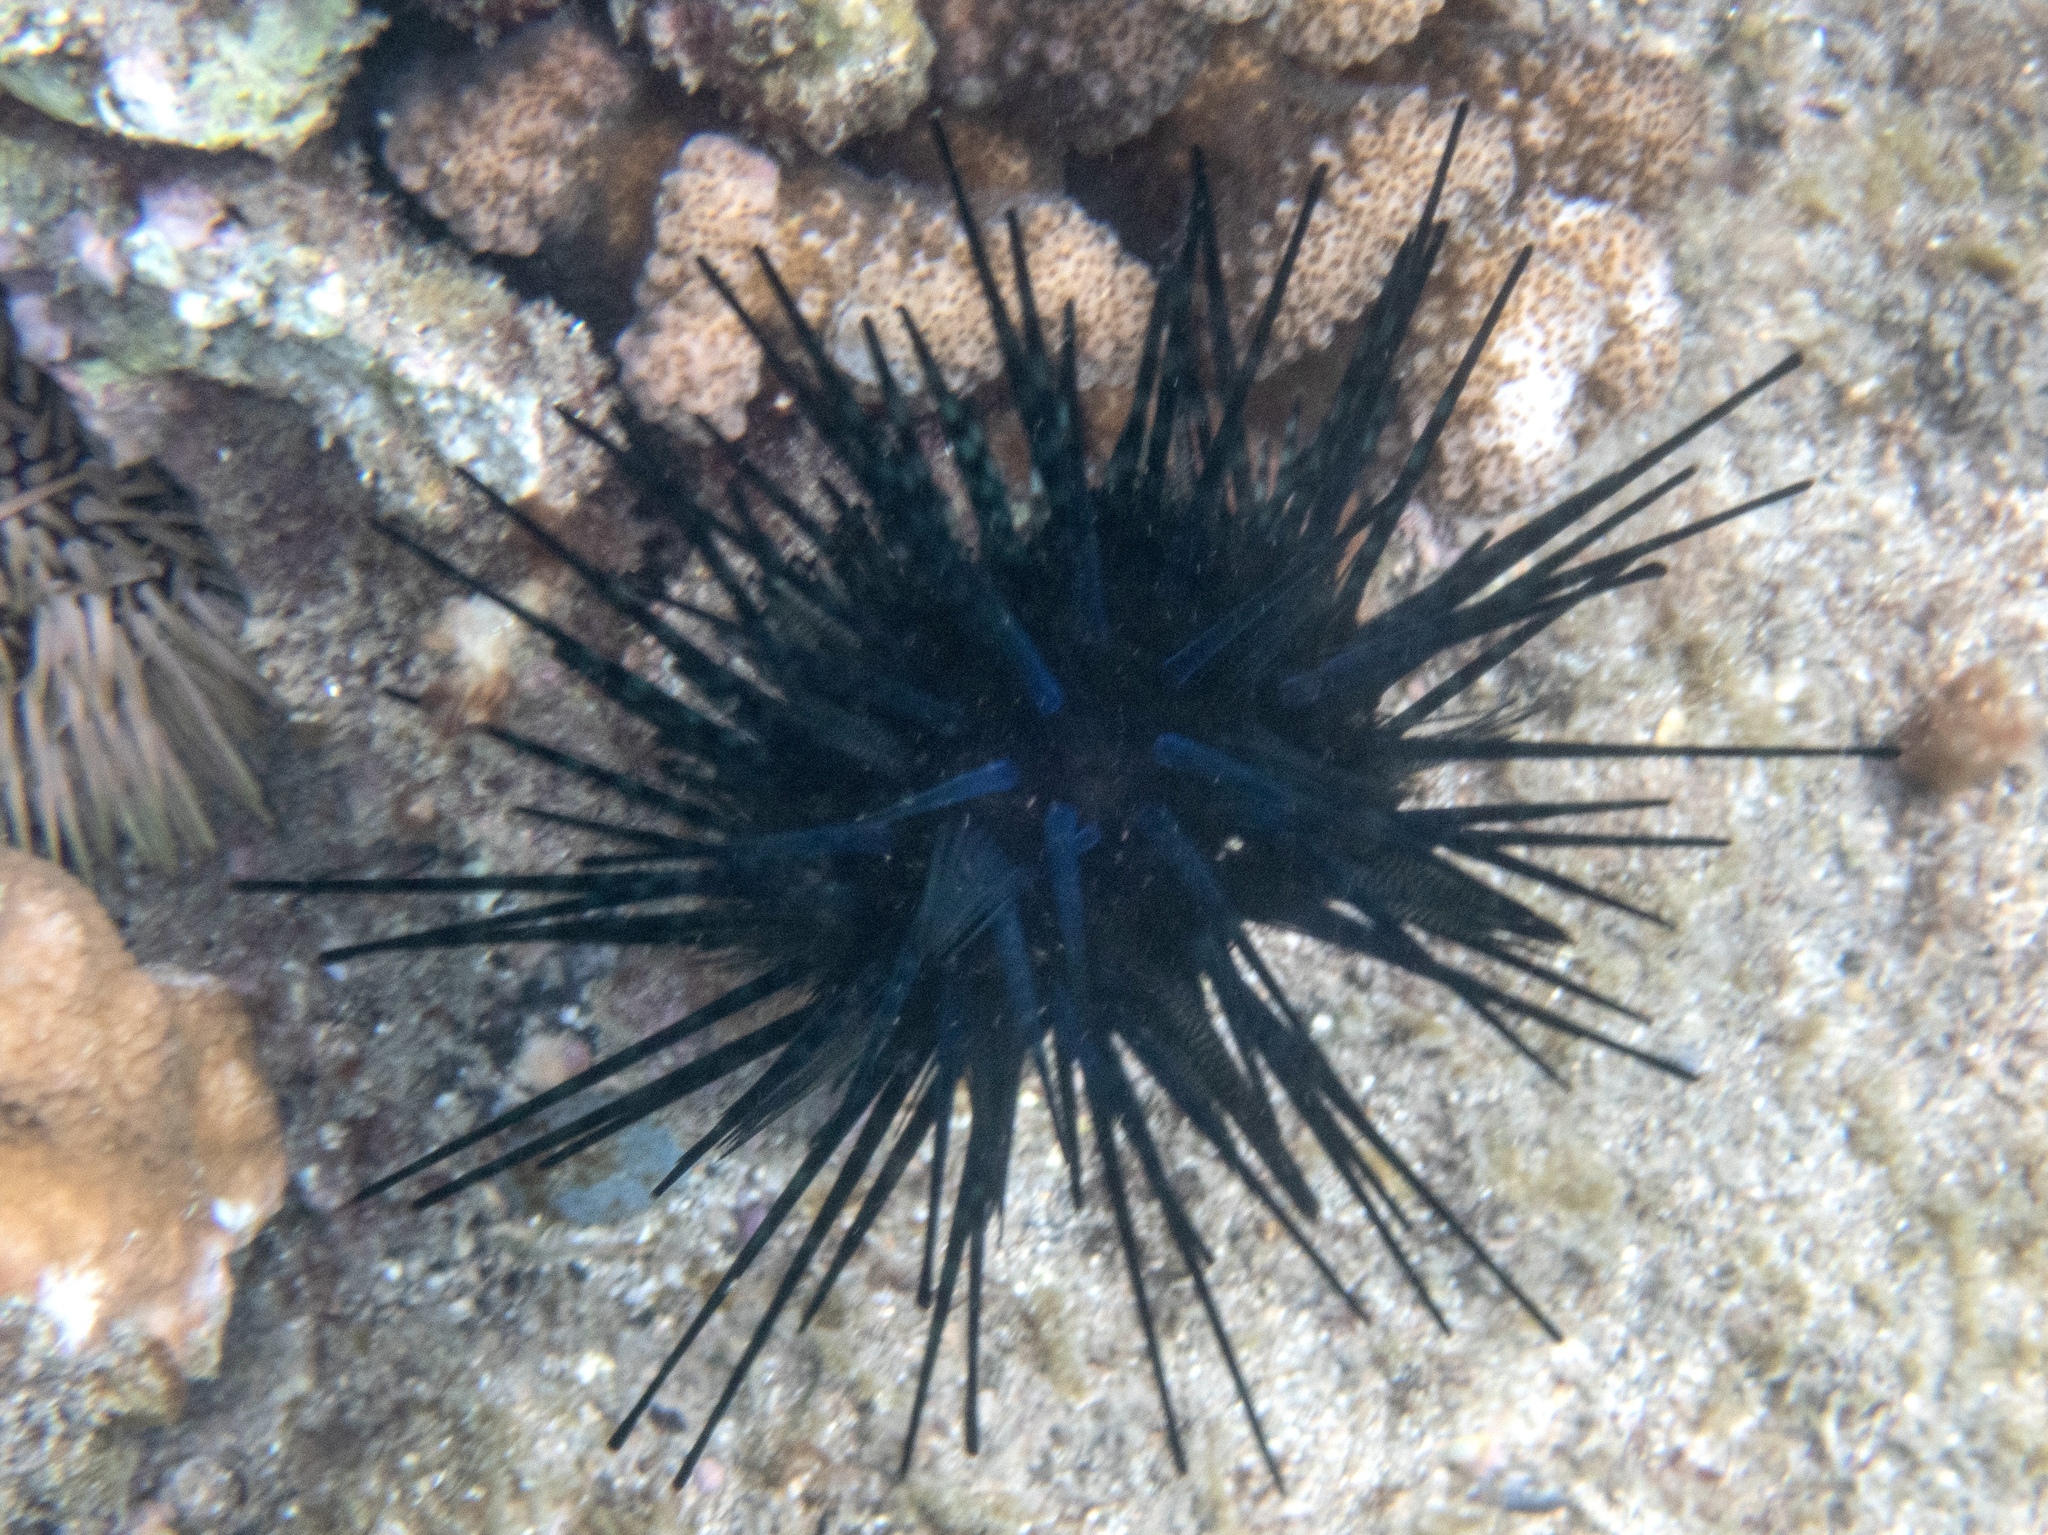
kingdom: Animalia
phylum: Echinodermata
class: Echinoidea
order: Diadematoida
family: Diadematidae
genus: Echinothrix
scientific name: Echinothrix diadema
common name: Schwarzer diademseeigel
